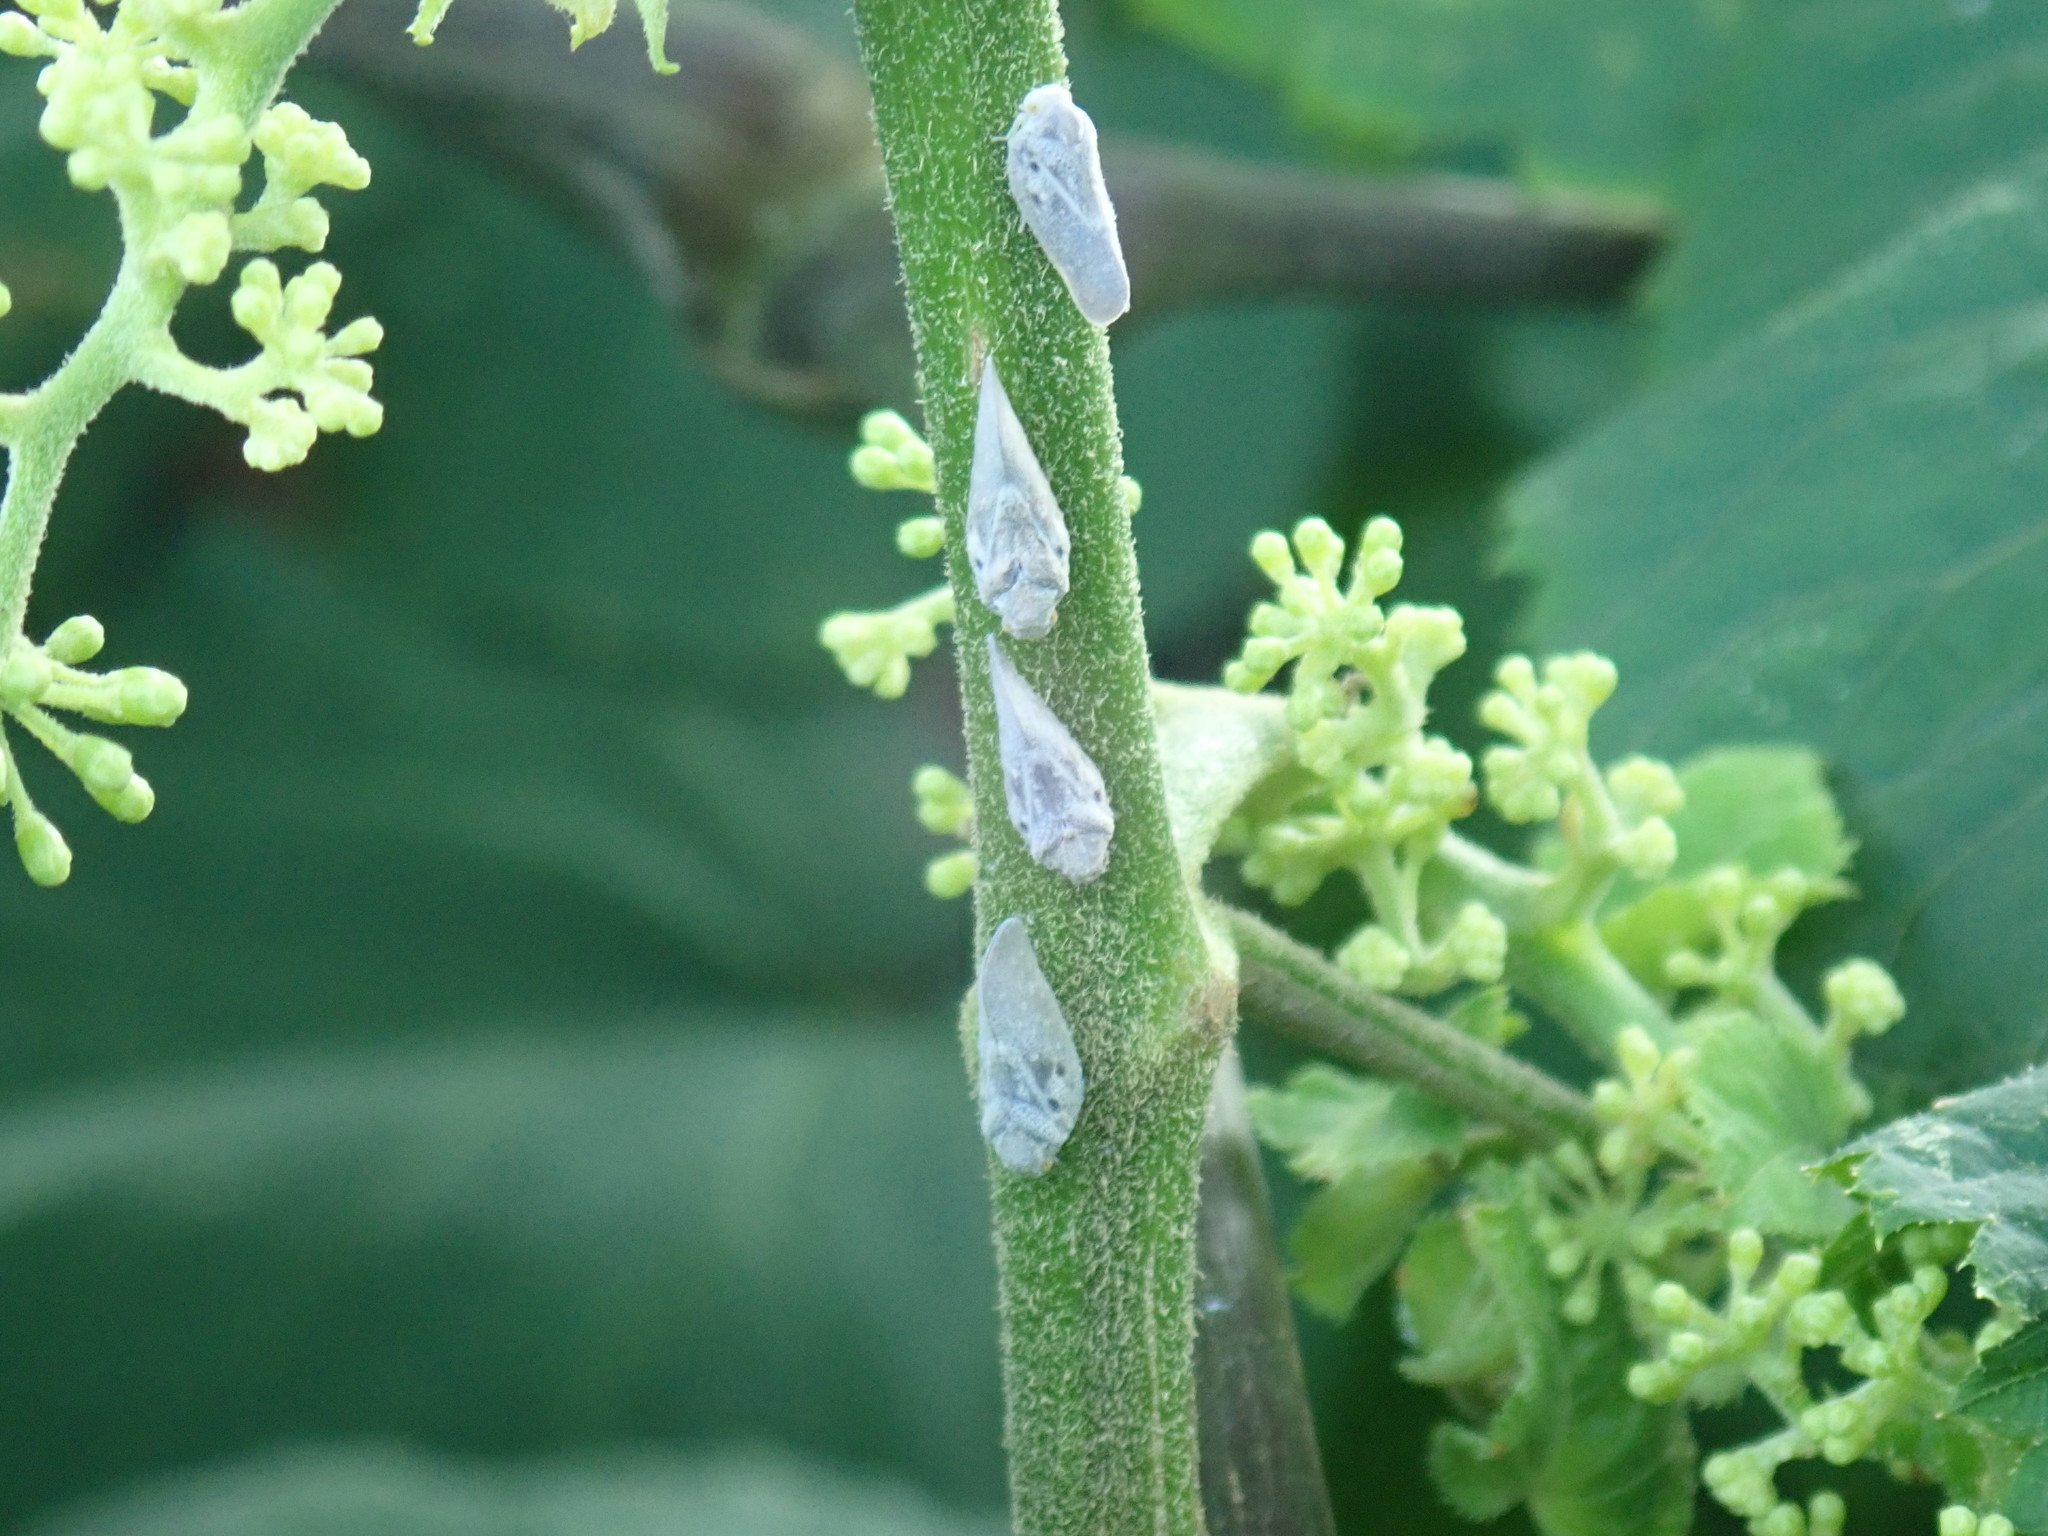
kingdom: Animalia
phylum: Arthropoda
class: Insecta
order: Hemiptera
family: Flatidae
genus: Metcalfa
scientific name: Metcalfa pruinosa
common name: Citrus flatid planthopper
